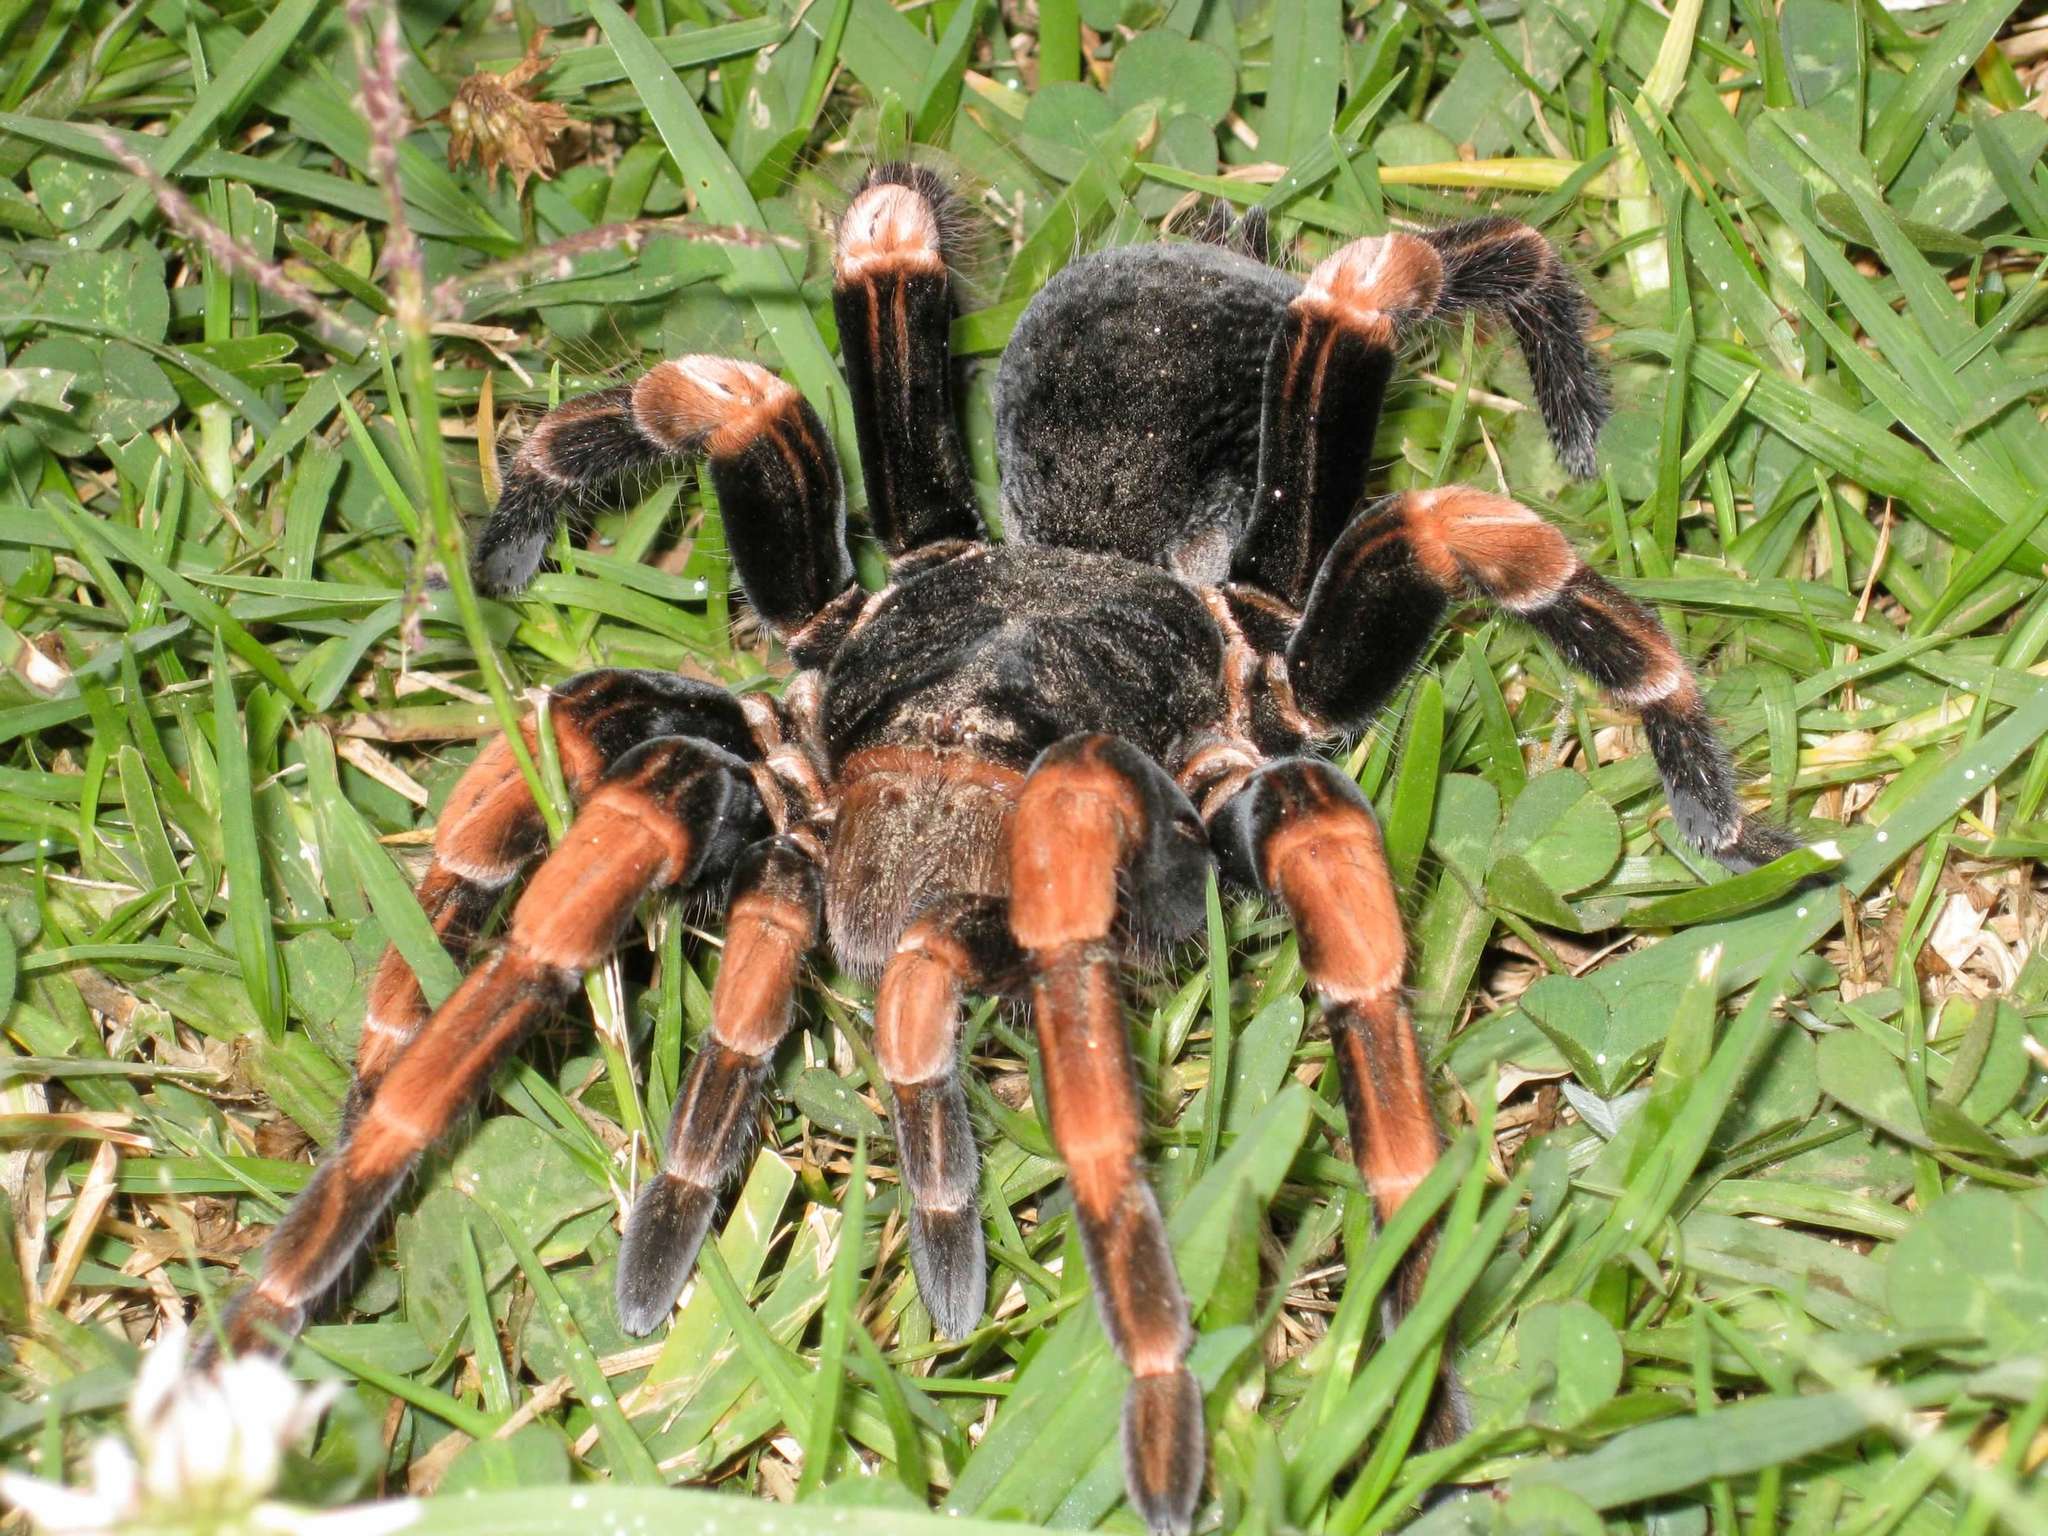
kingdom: Animalia
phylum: Arthropoda
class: Arachnida
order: Araneae
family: Theraphosidae
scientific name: Theraphosidae
